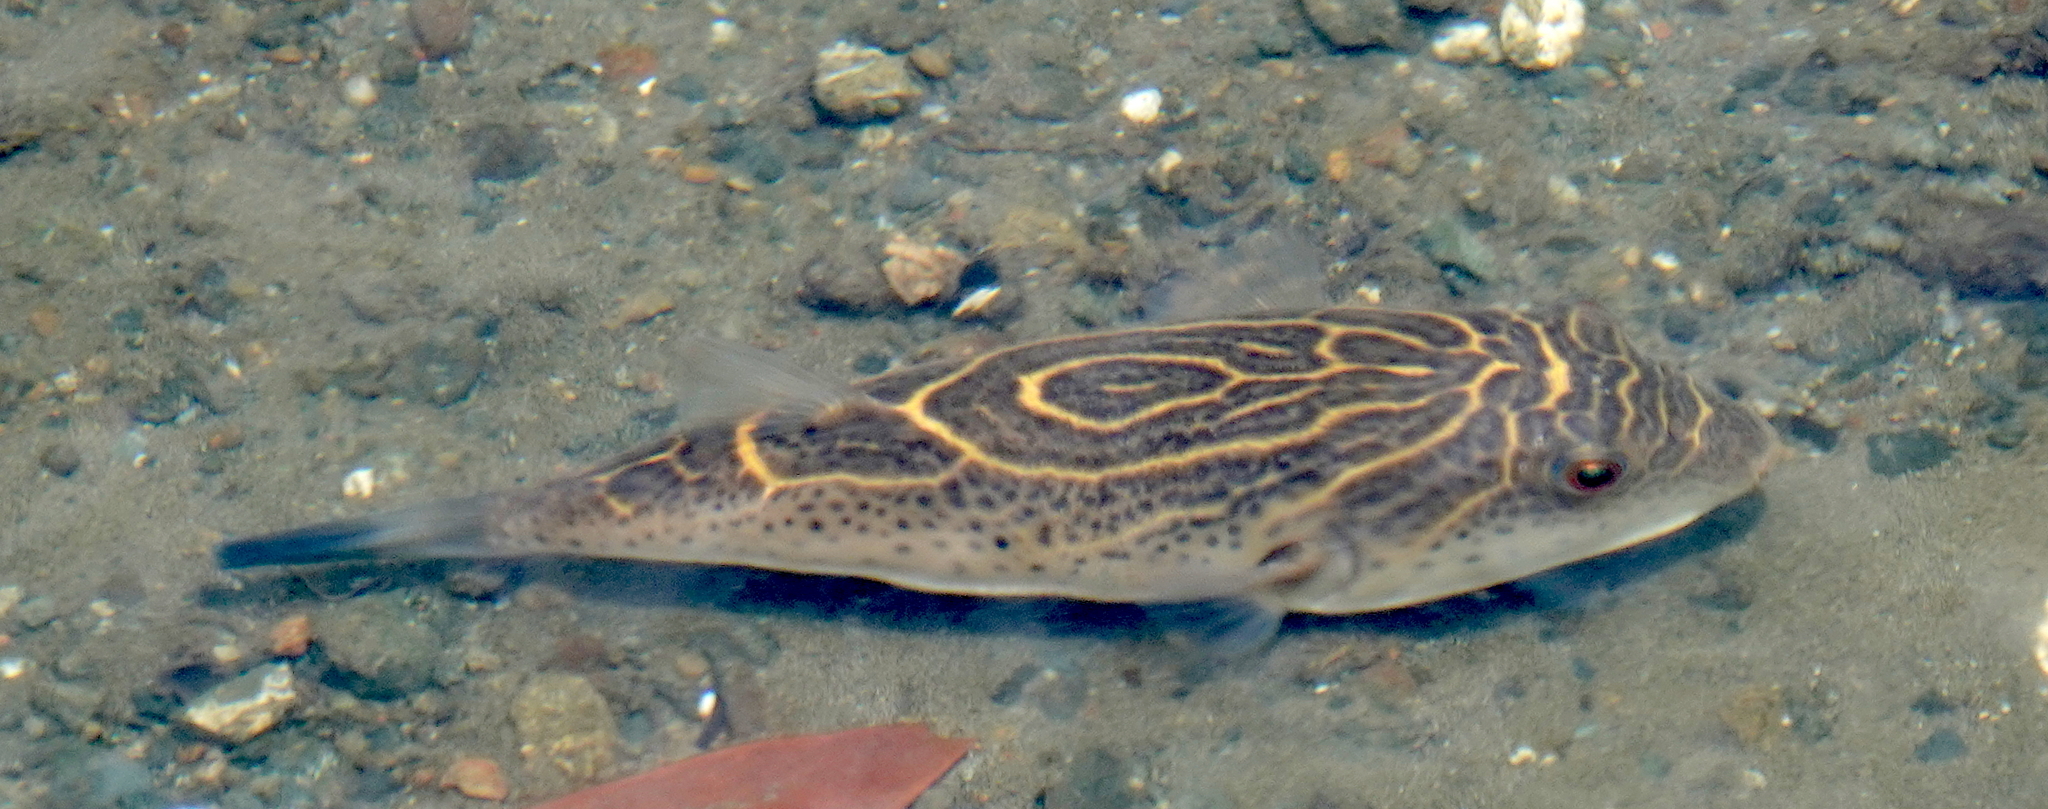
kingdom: Animalia
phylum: Chordata
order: Tetraodontiformes
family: Tetraodontidae
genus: Sphoeroides
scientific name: Sphoeroides rosenblatti
